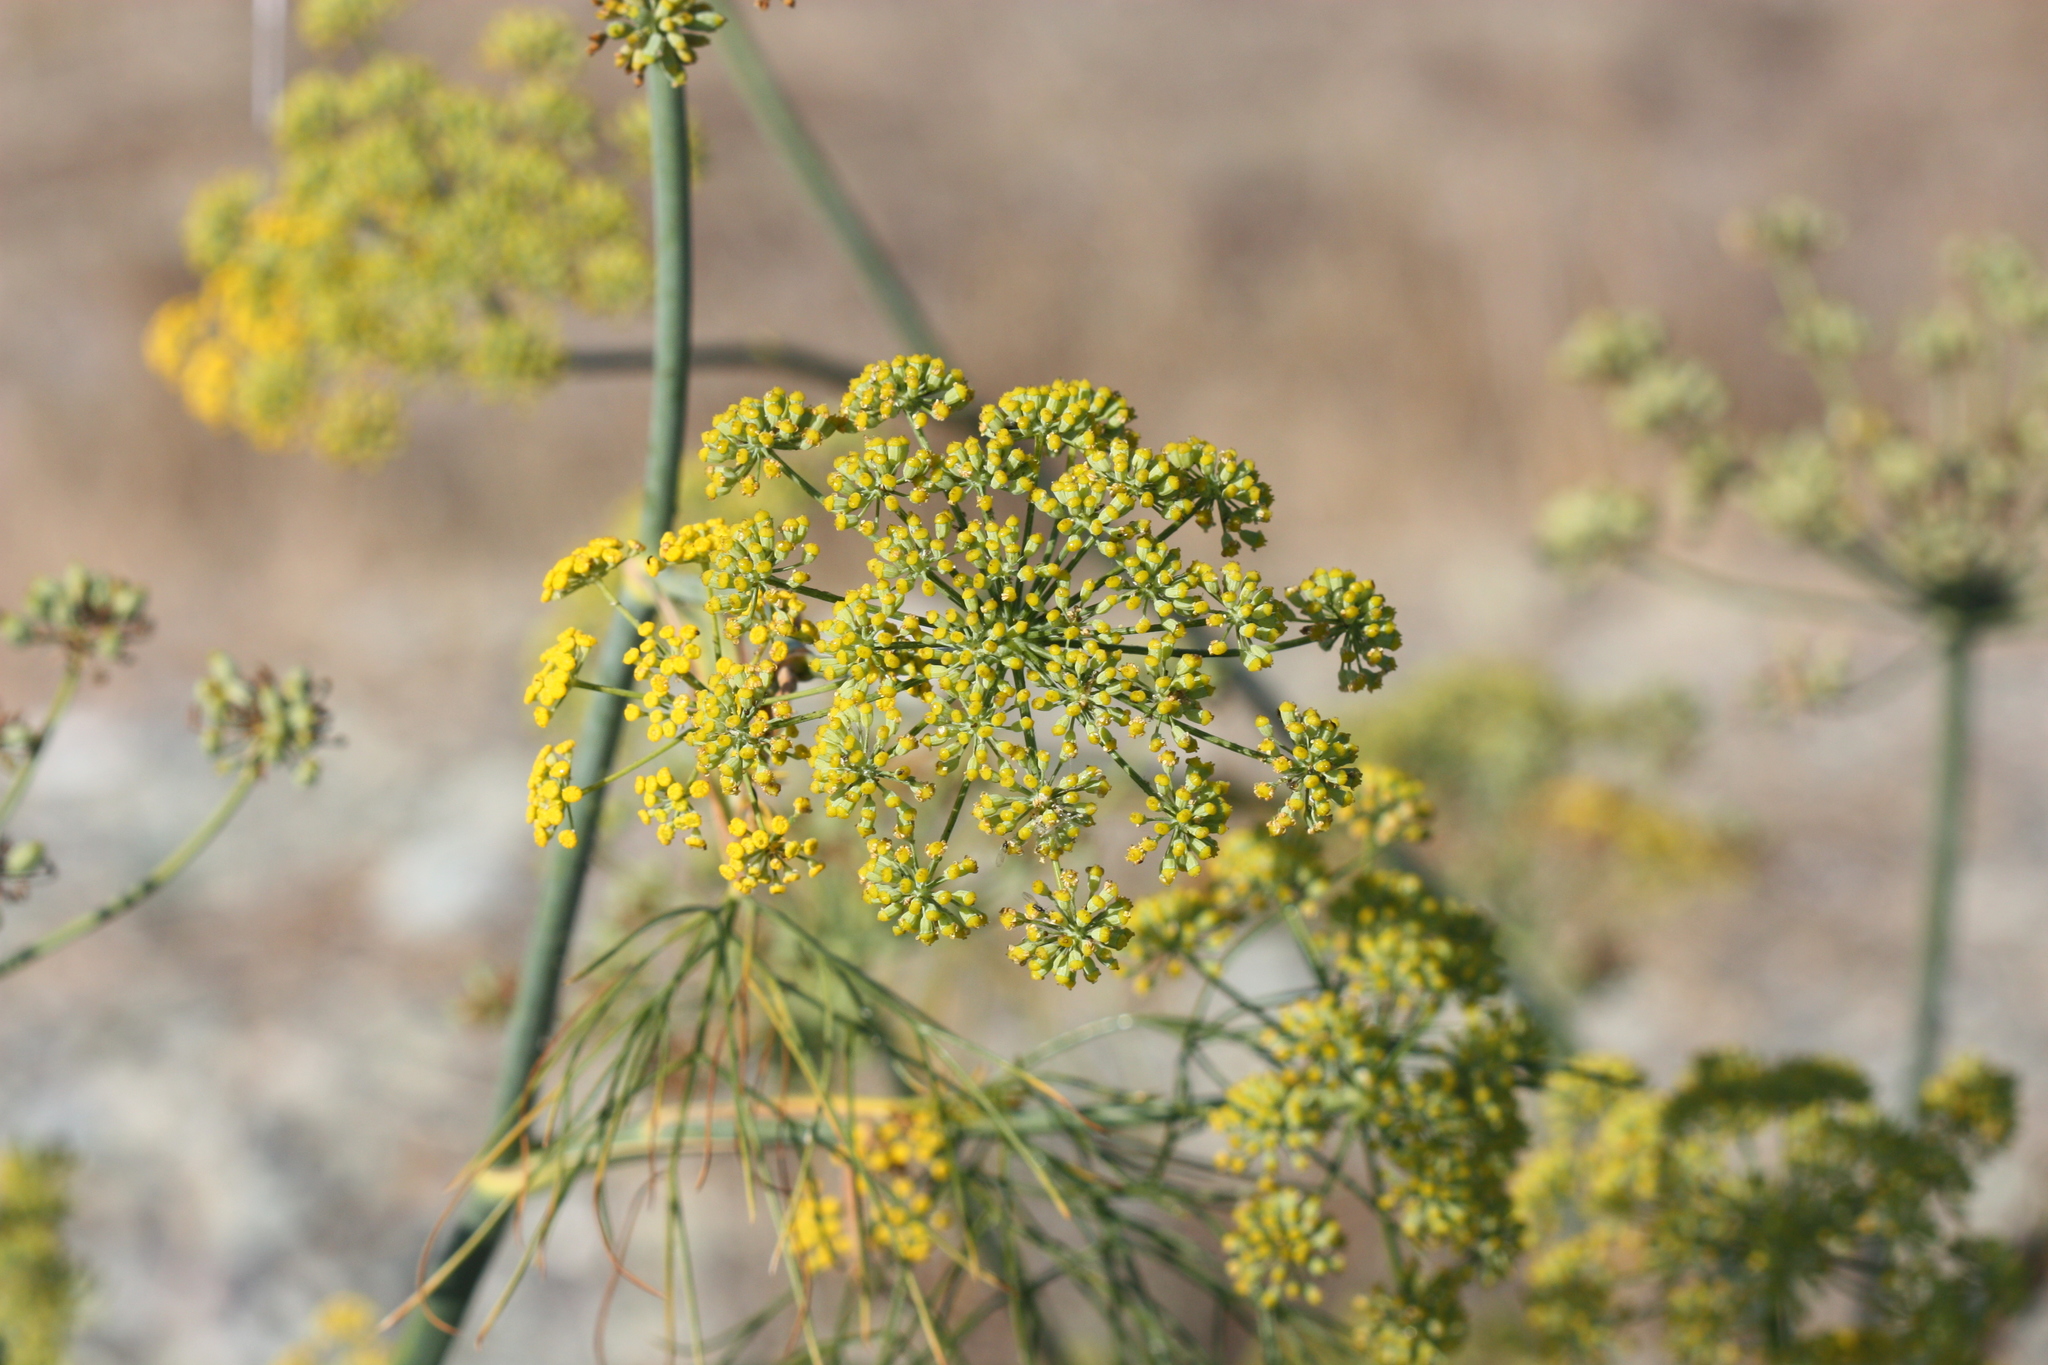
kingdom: Plantae
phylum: Tracheophyta
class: Magnoliopsida
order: Apiales
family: Apiaceae
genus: Foeniculum
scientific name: Foeniculum vulgare
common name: Fennel
